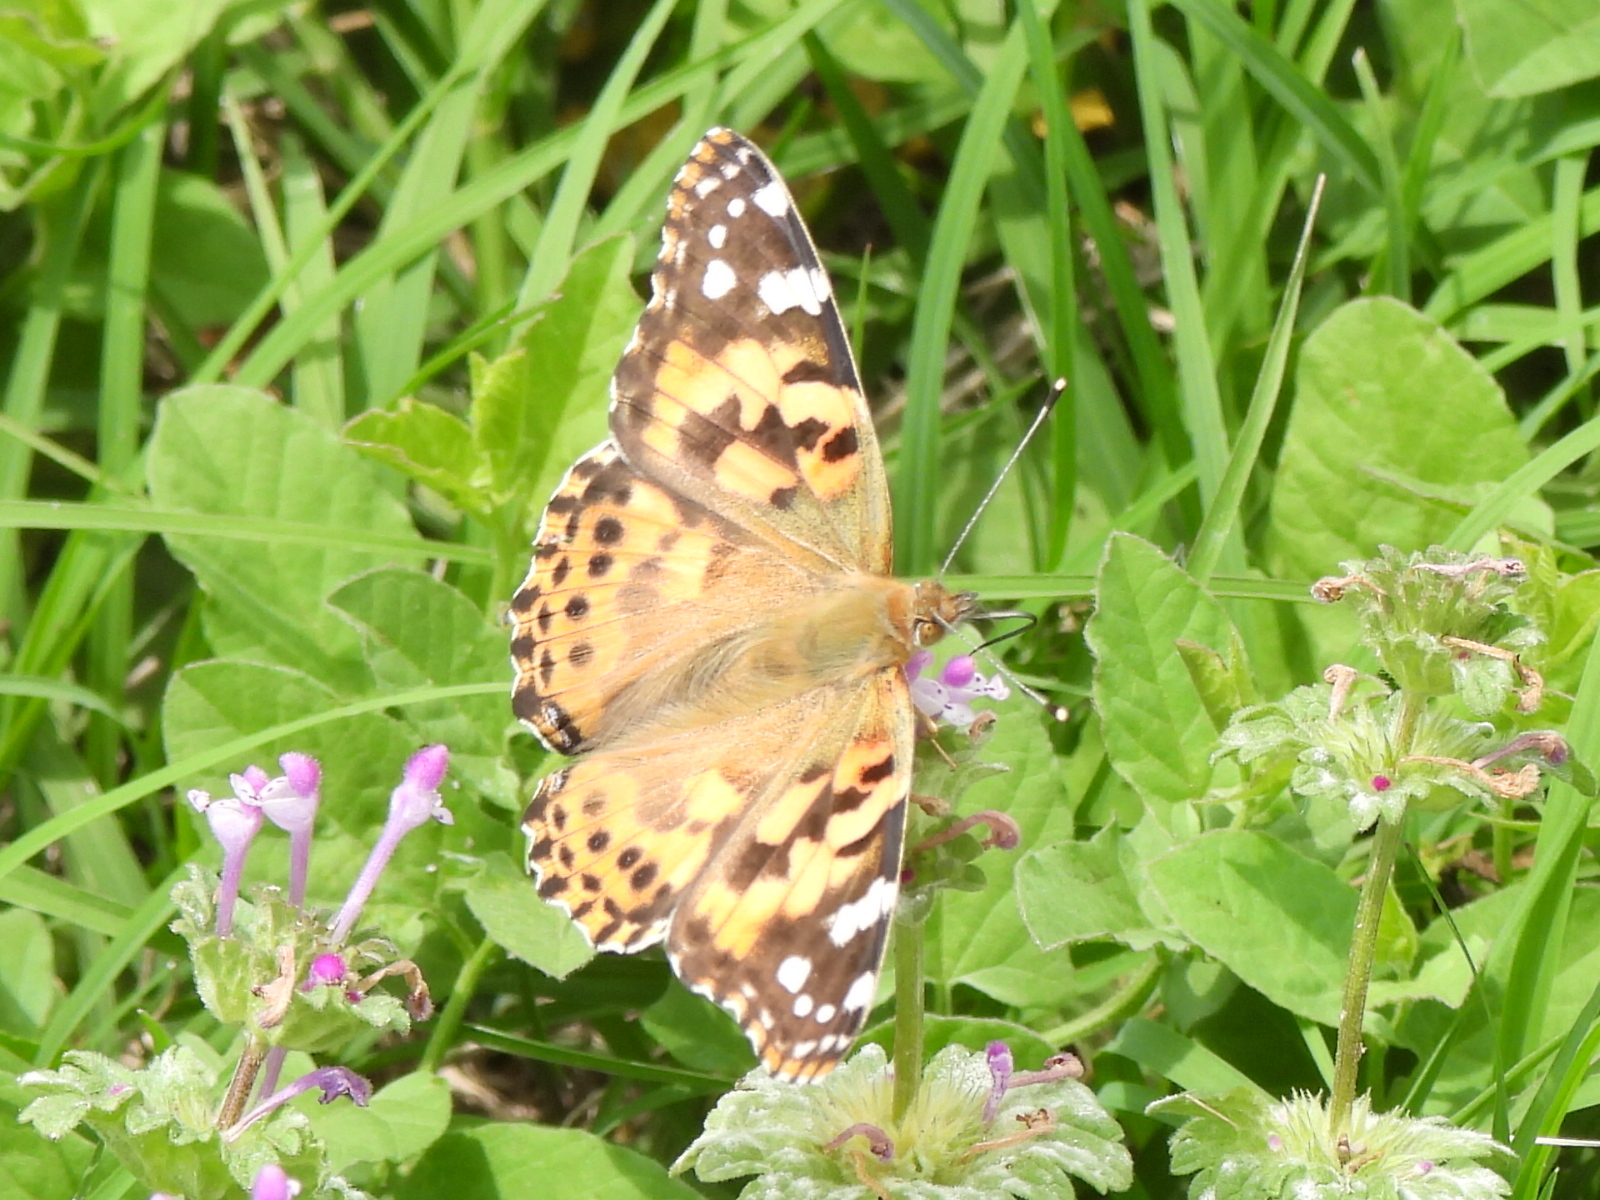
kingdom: Animalia
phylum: Arthropoda
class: Insecta
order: Lepidoptera
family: Nymphalidae
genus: Vanessa
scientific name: Vanessa cardui
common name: Painted lady
